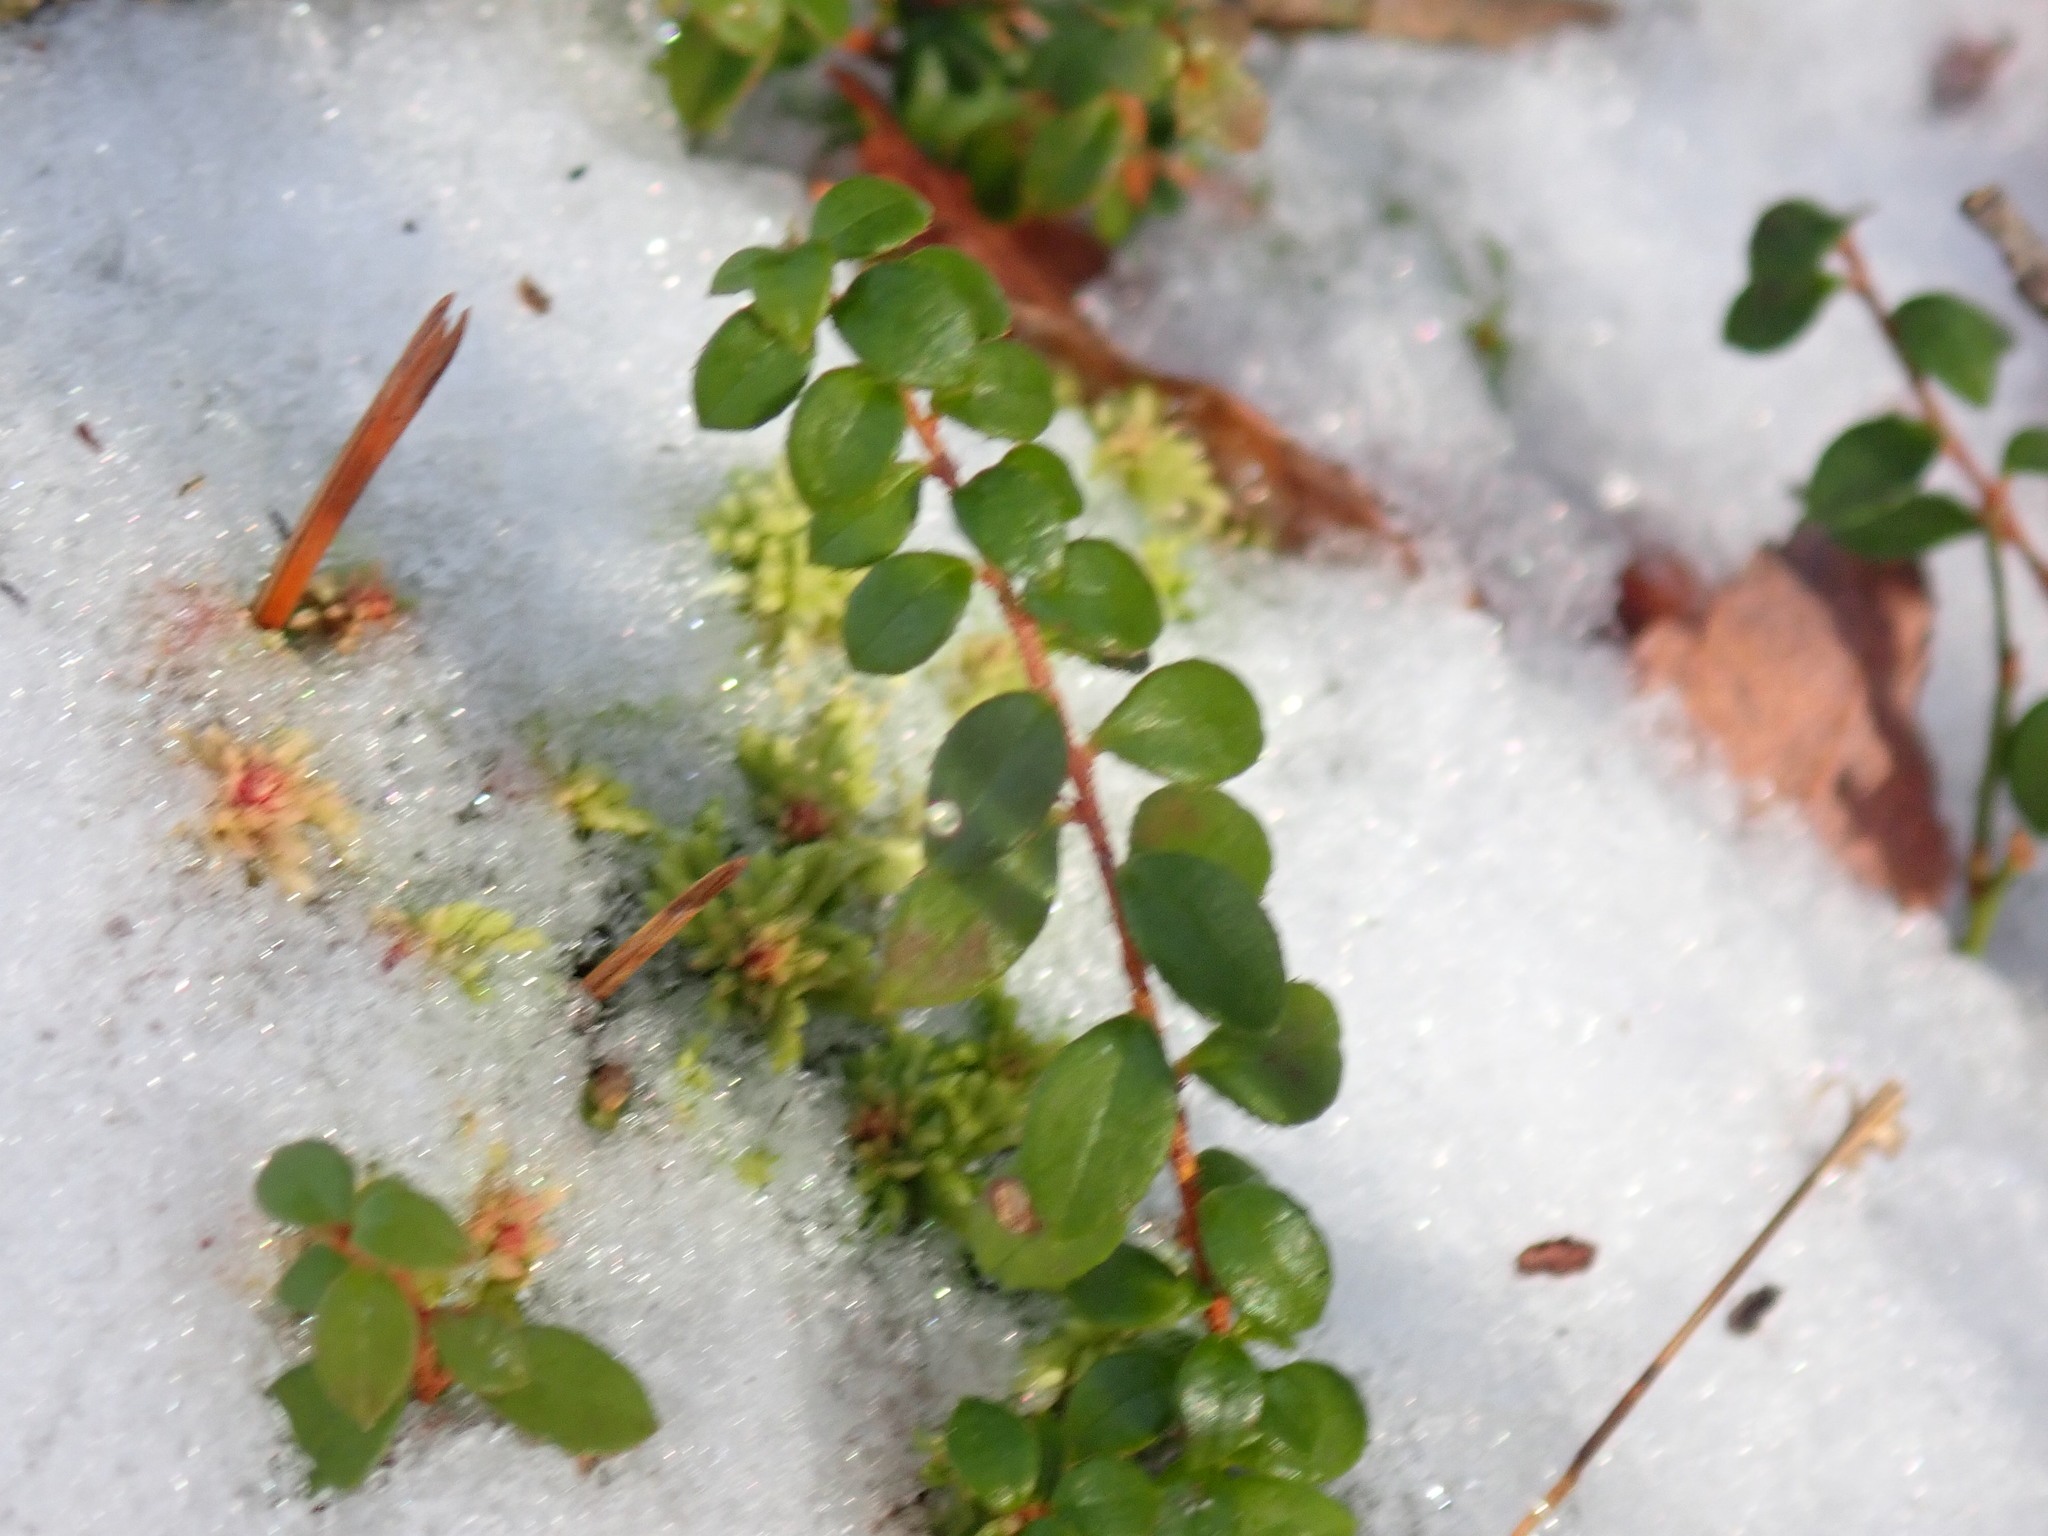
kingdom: Plantae
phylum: Tracheophyta
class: Magnoliopsida
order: Ericales
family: Ericaceae
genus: Gaultheria
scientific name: Gaultheria hispidula
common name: Cancer wintergreen
